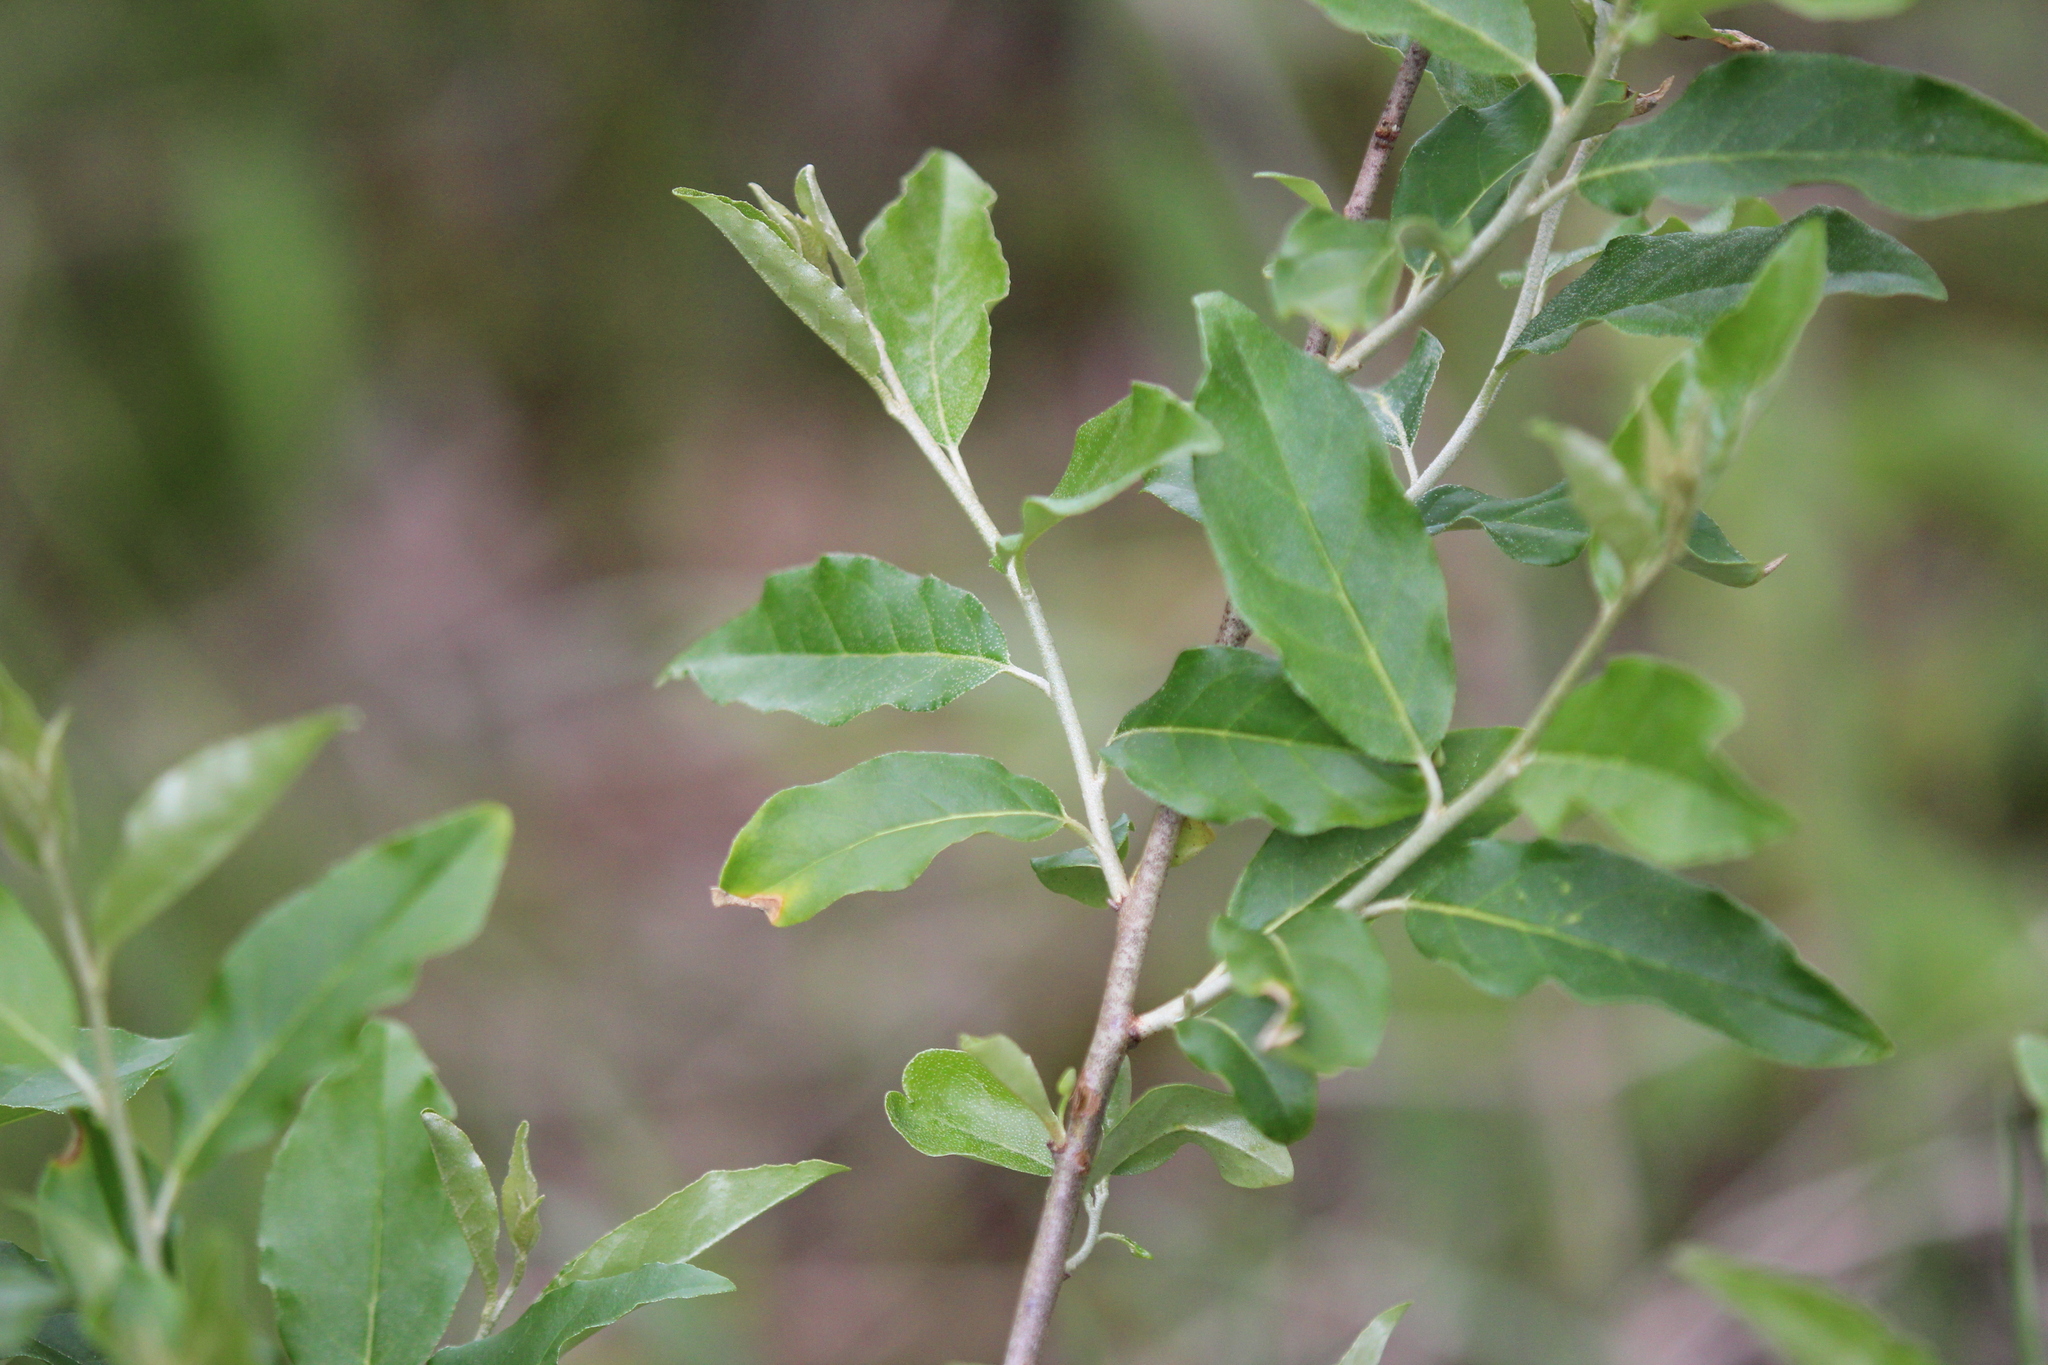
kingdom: Plantae
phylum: Tracheophyta
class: Magnoliopsida
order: Rosales
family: Elaeagnaceae
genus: Elaeagnus
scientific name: Elaeagnus umbellata
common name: Autumn olive
